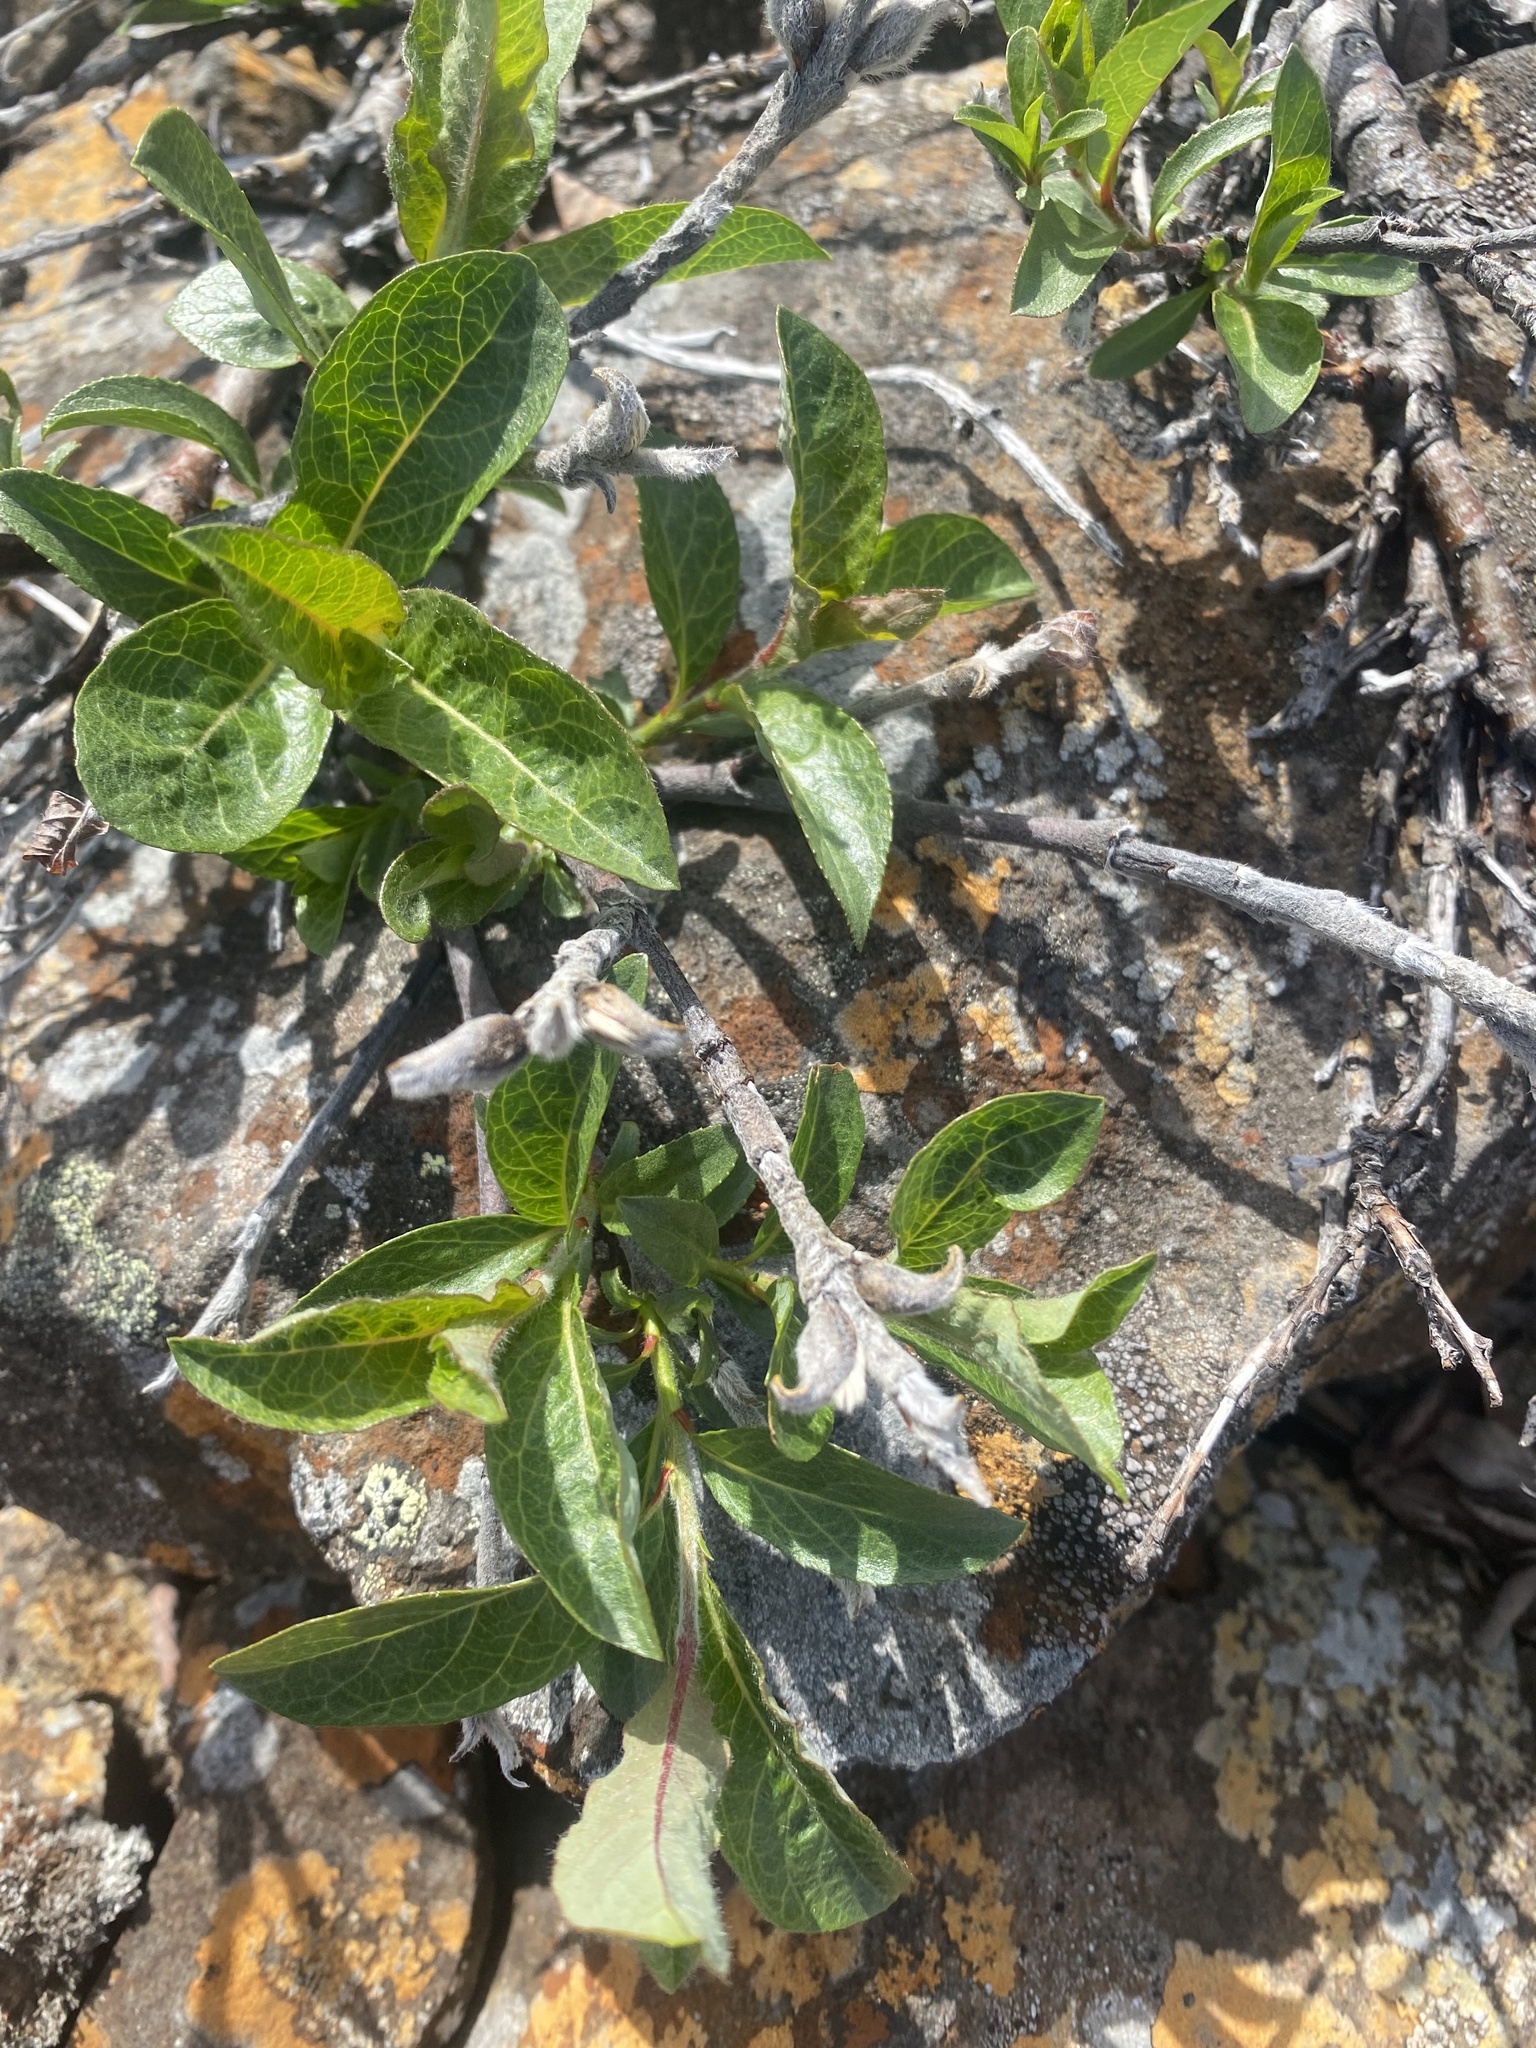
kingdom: Plantae
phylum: Tracheophyta
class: Magnoliopsida
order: Malpighiales
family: Salicaceae
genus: Salix
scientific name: Salix recurvigemmata
